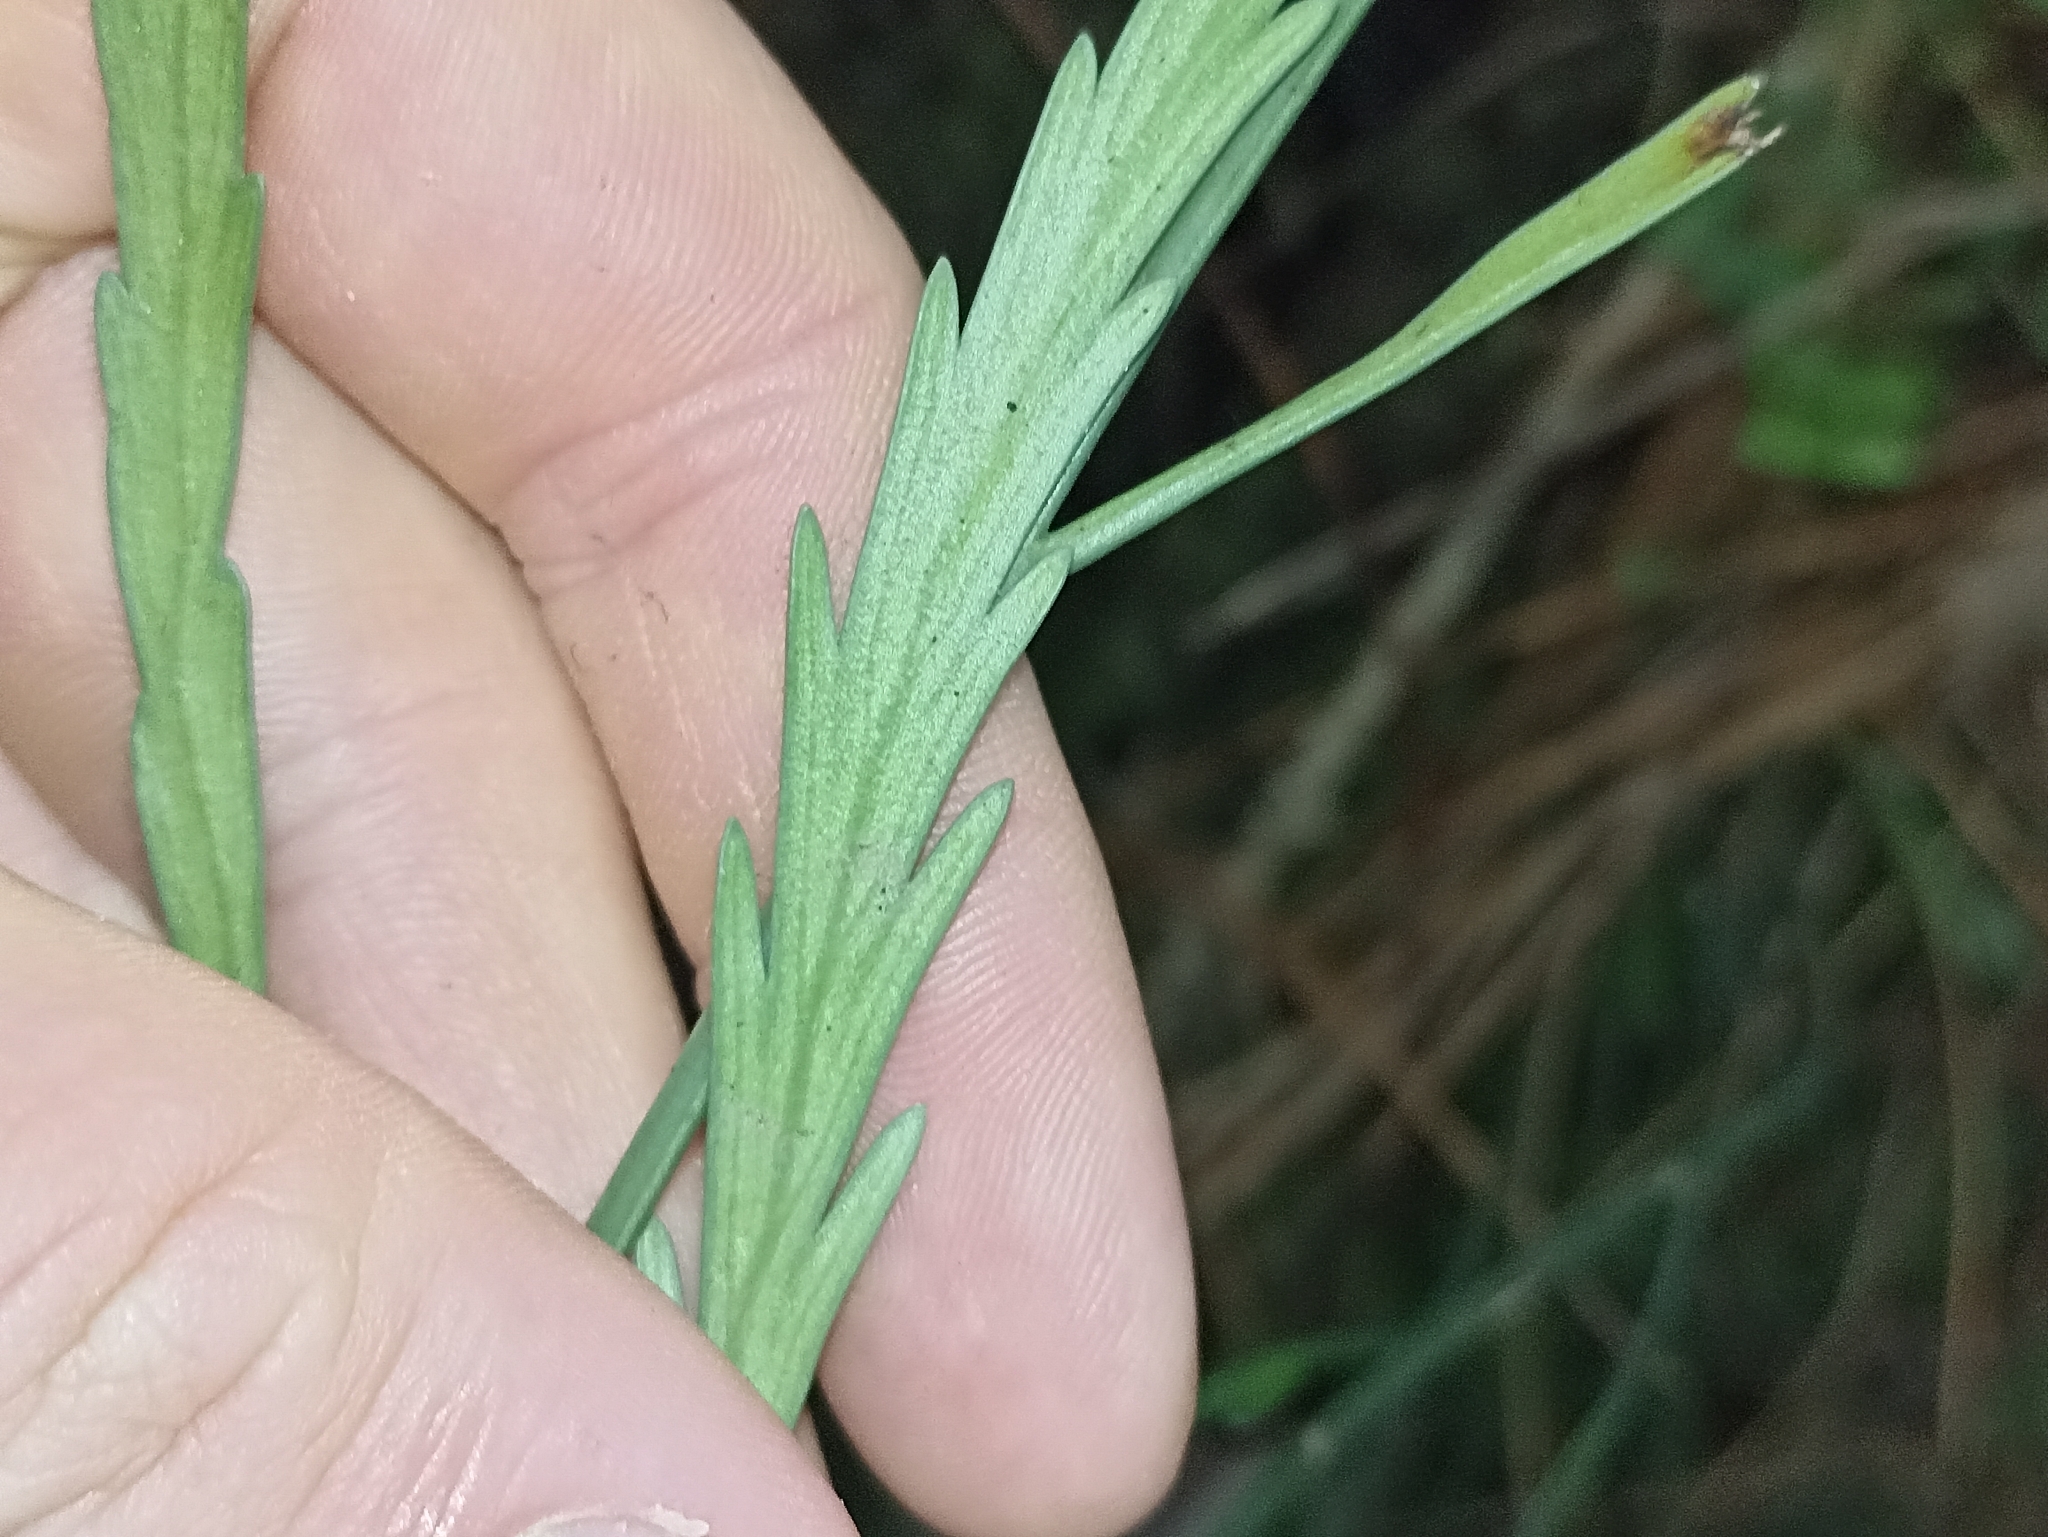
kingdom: Plantae
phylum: Tracheophyta
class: Polypodiopsida
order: Polypodiales
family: Aspleniaceae
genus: Asplenium
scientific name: Asplenium flaccidum
